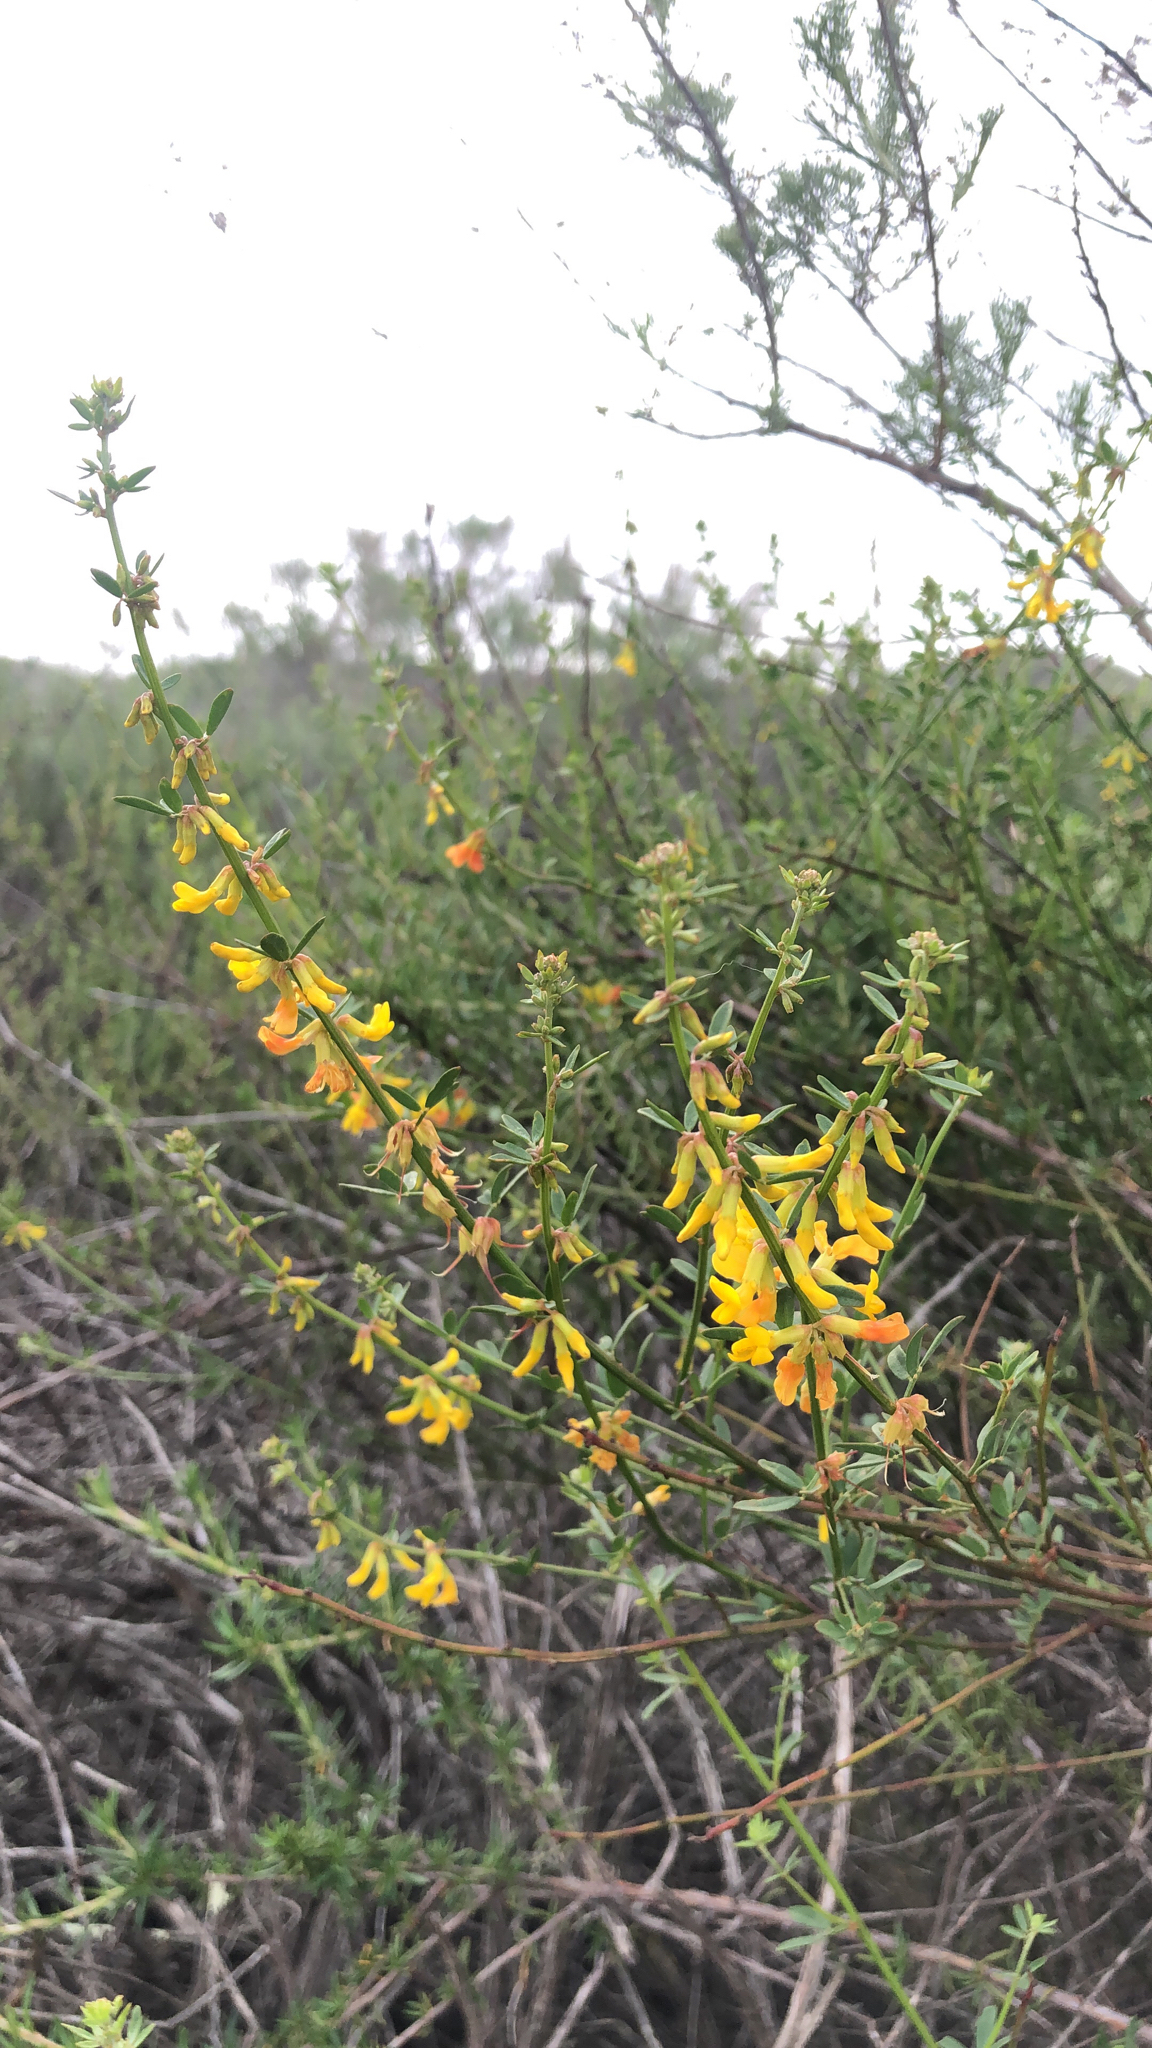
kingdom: Plantae
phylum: Tracheophyta
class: Magnoliopsida
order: Fabales
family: Fabaceae
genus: Acmispon
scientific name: Acmispon glaber
